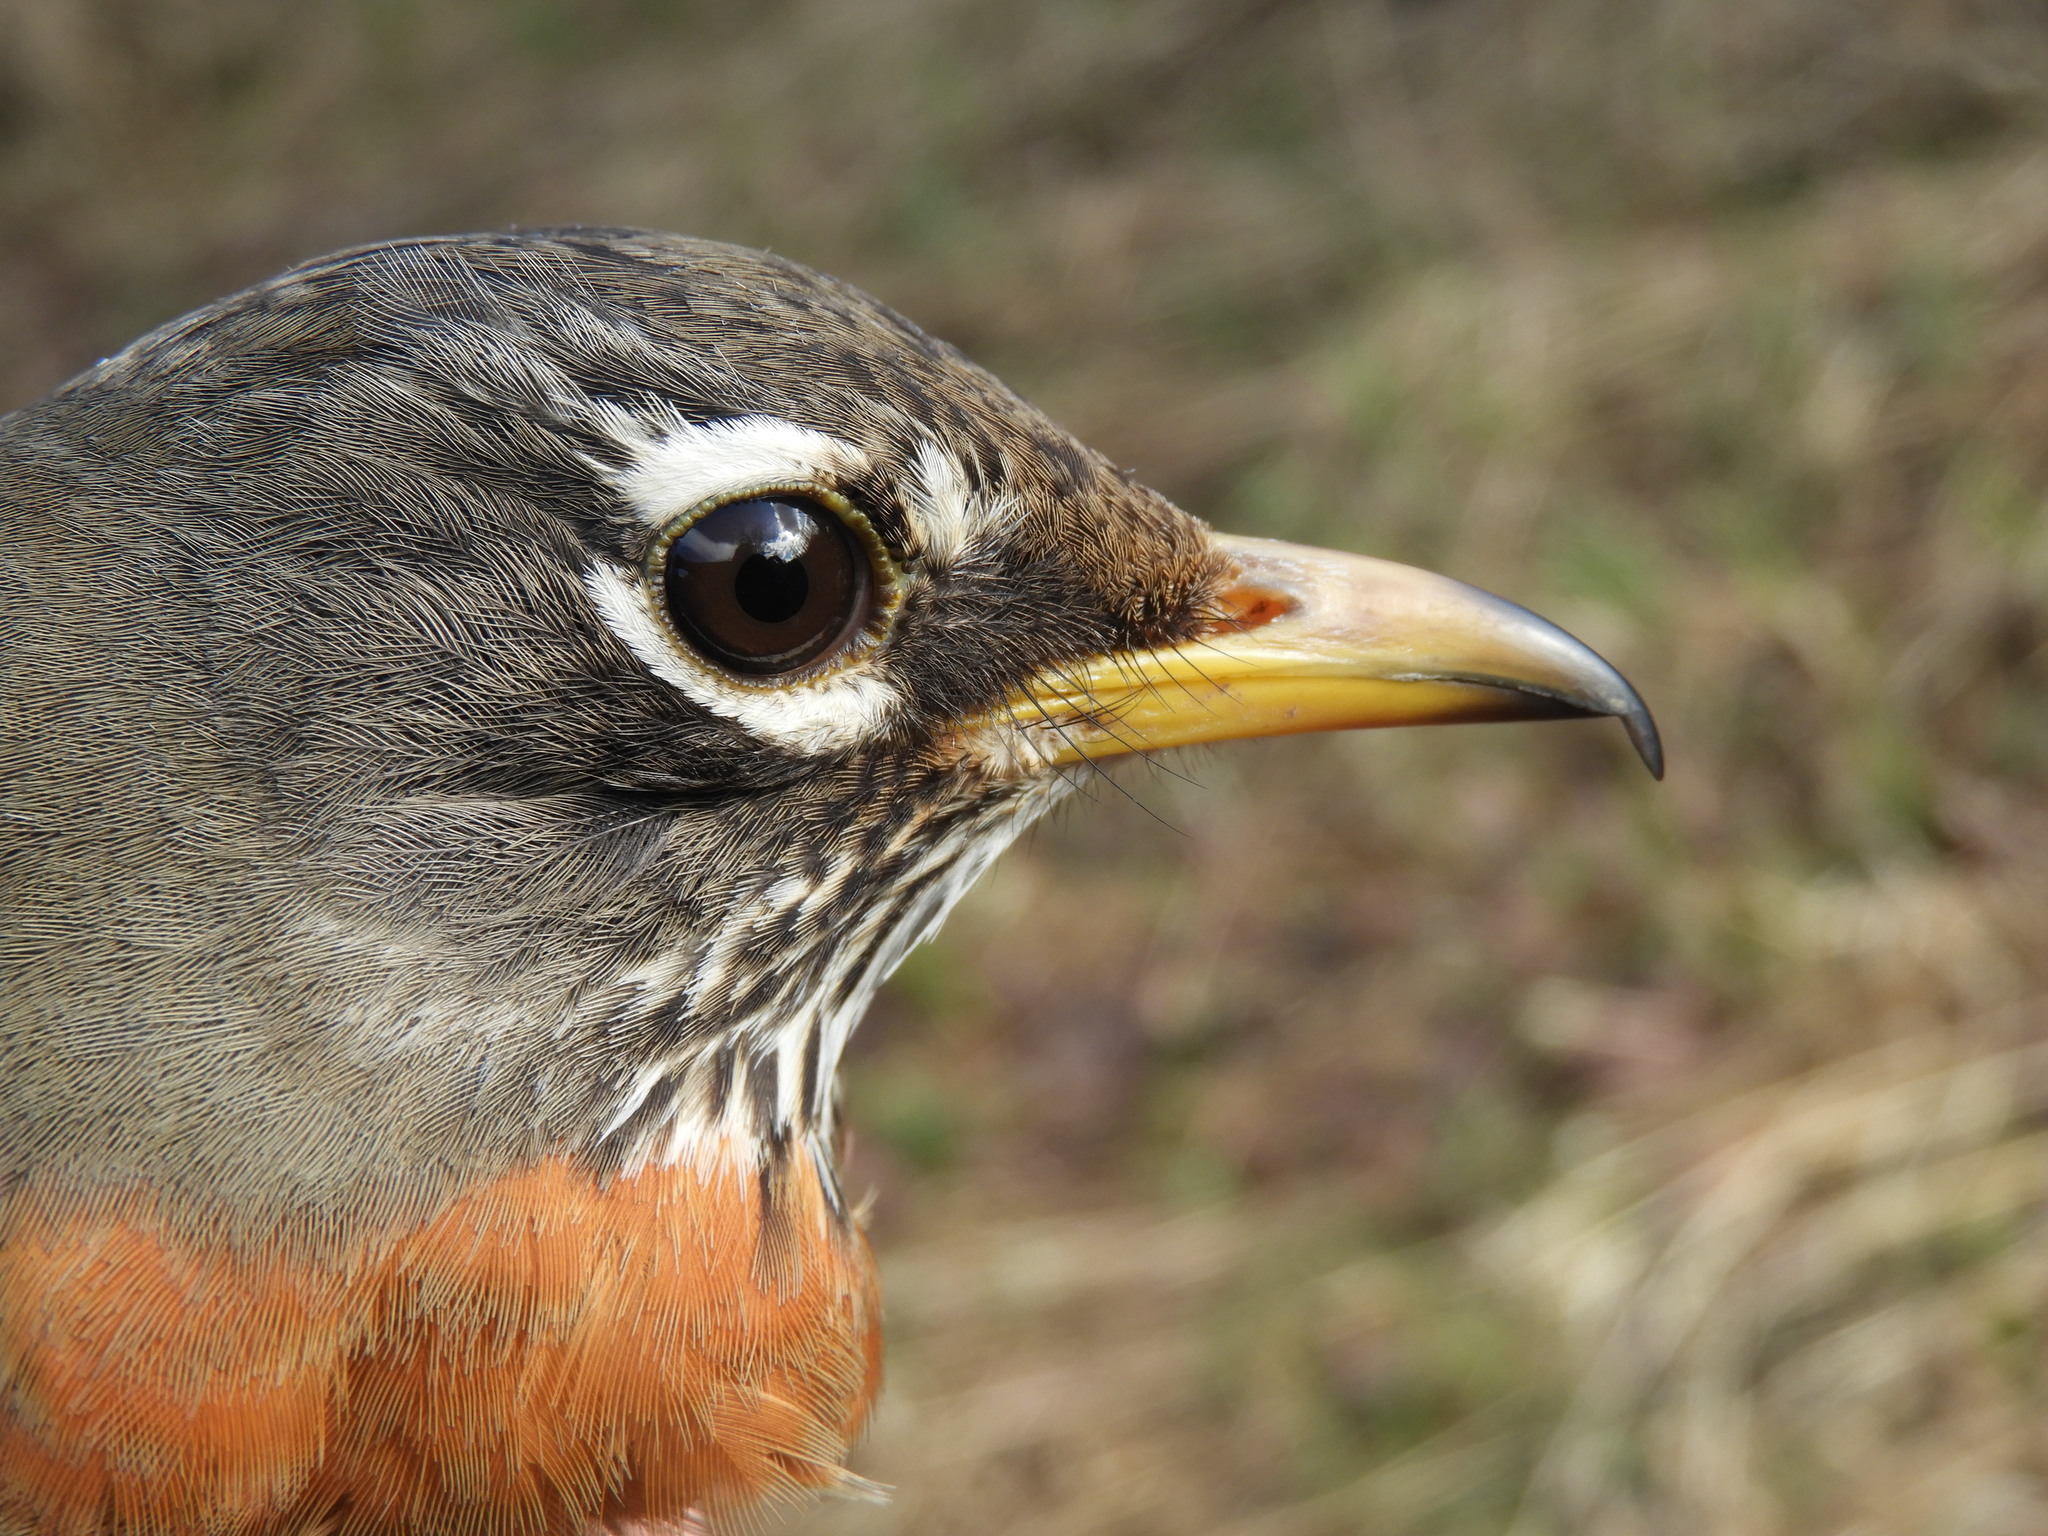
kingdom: Animalia
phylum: Chordata
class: Aves
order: Passeriformes
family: Turdidae
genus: Turdus
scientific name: Turdus migratorius
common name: American robin
